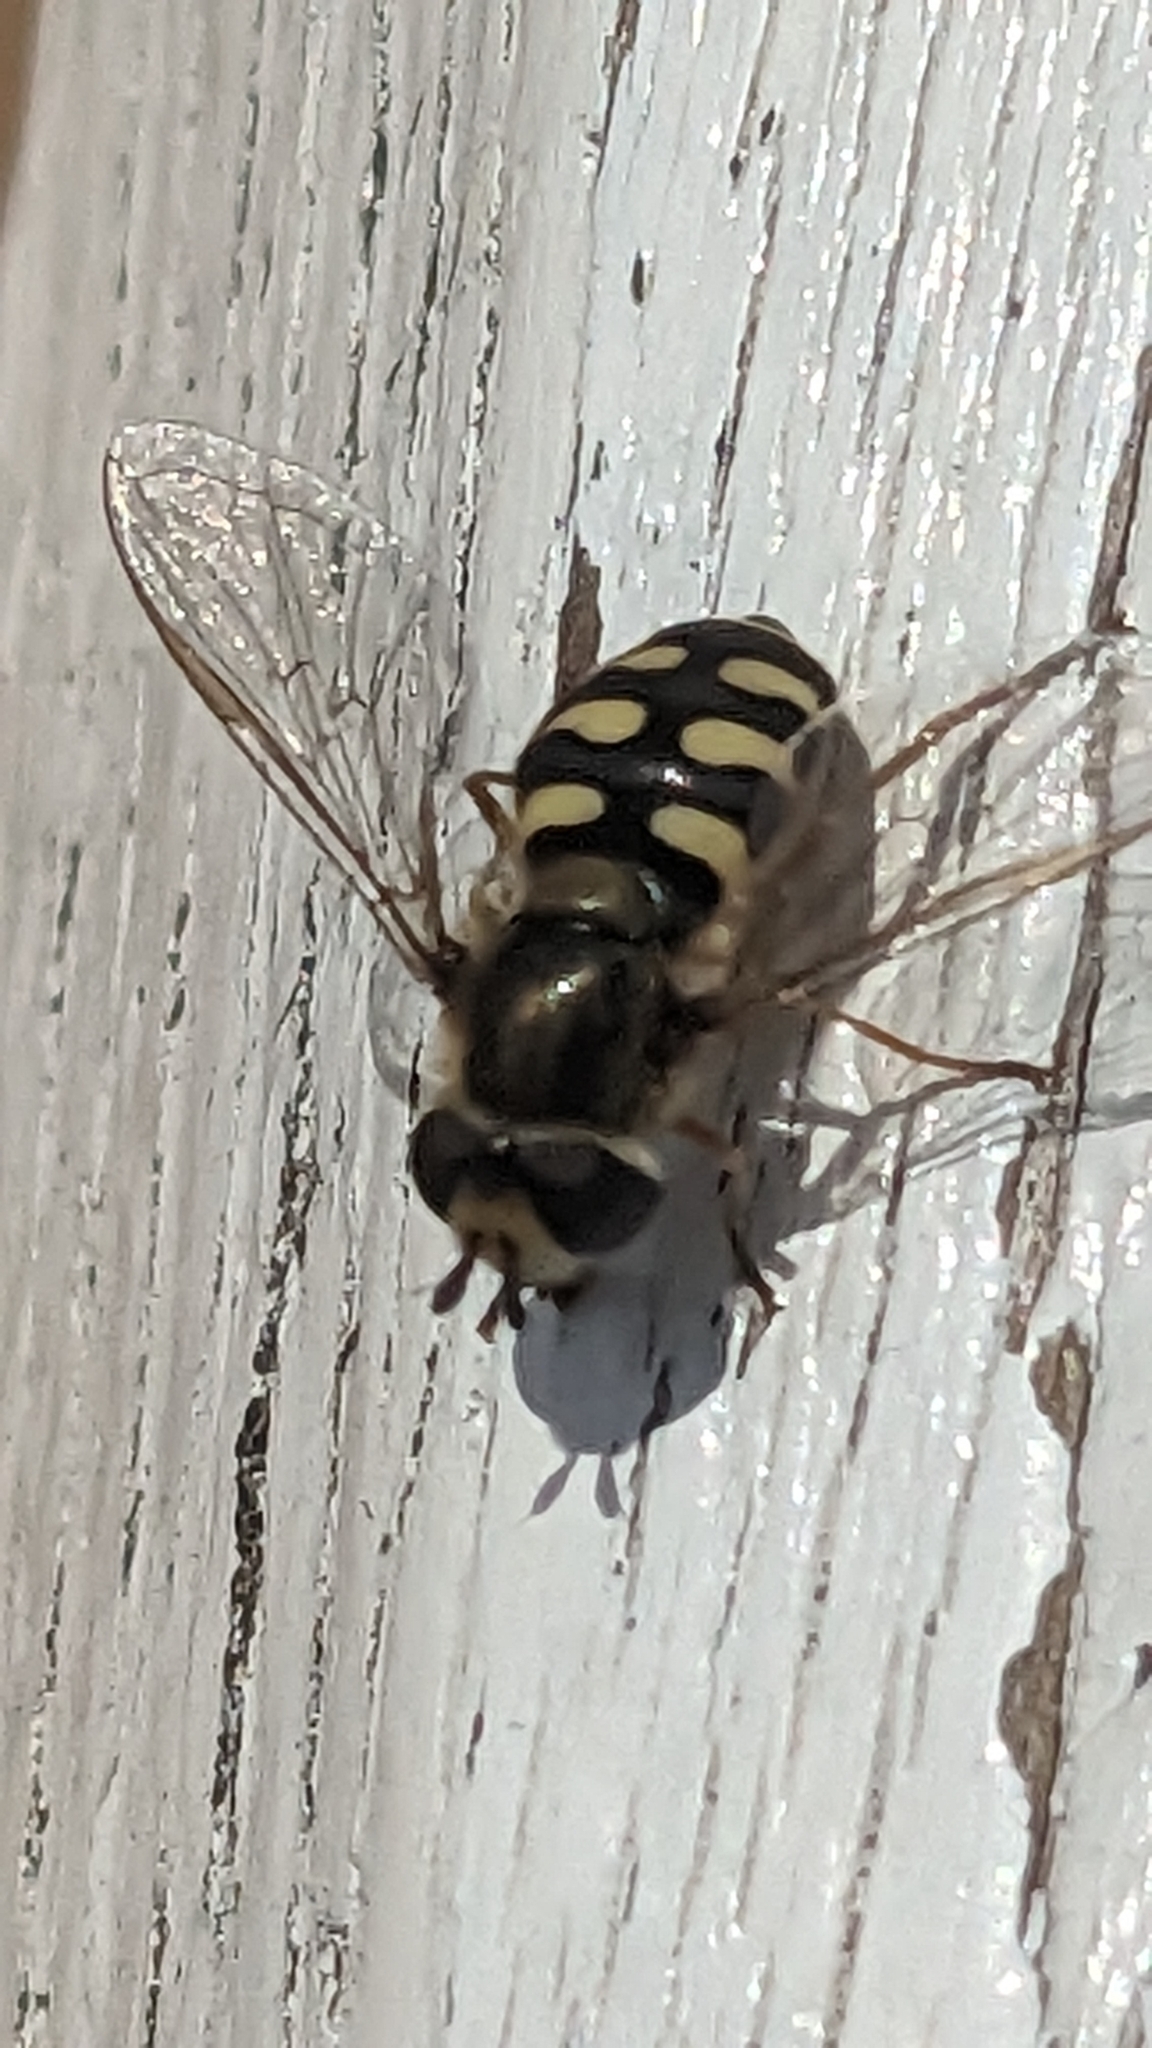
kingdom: Animalia
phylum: Arthropoda
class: Insecta
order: Diptera
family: Syrphidae
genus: Eupeodes
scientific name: Eupeodes corollae
